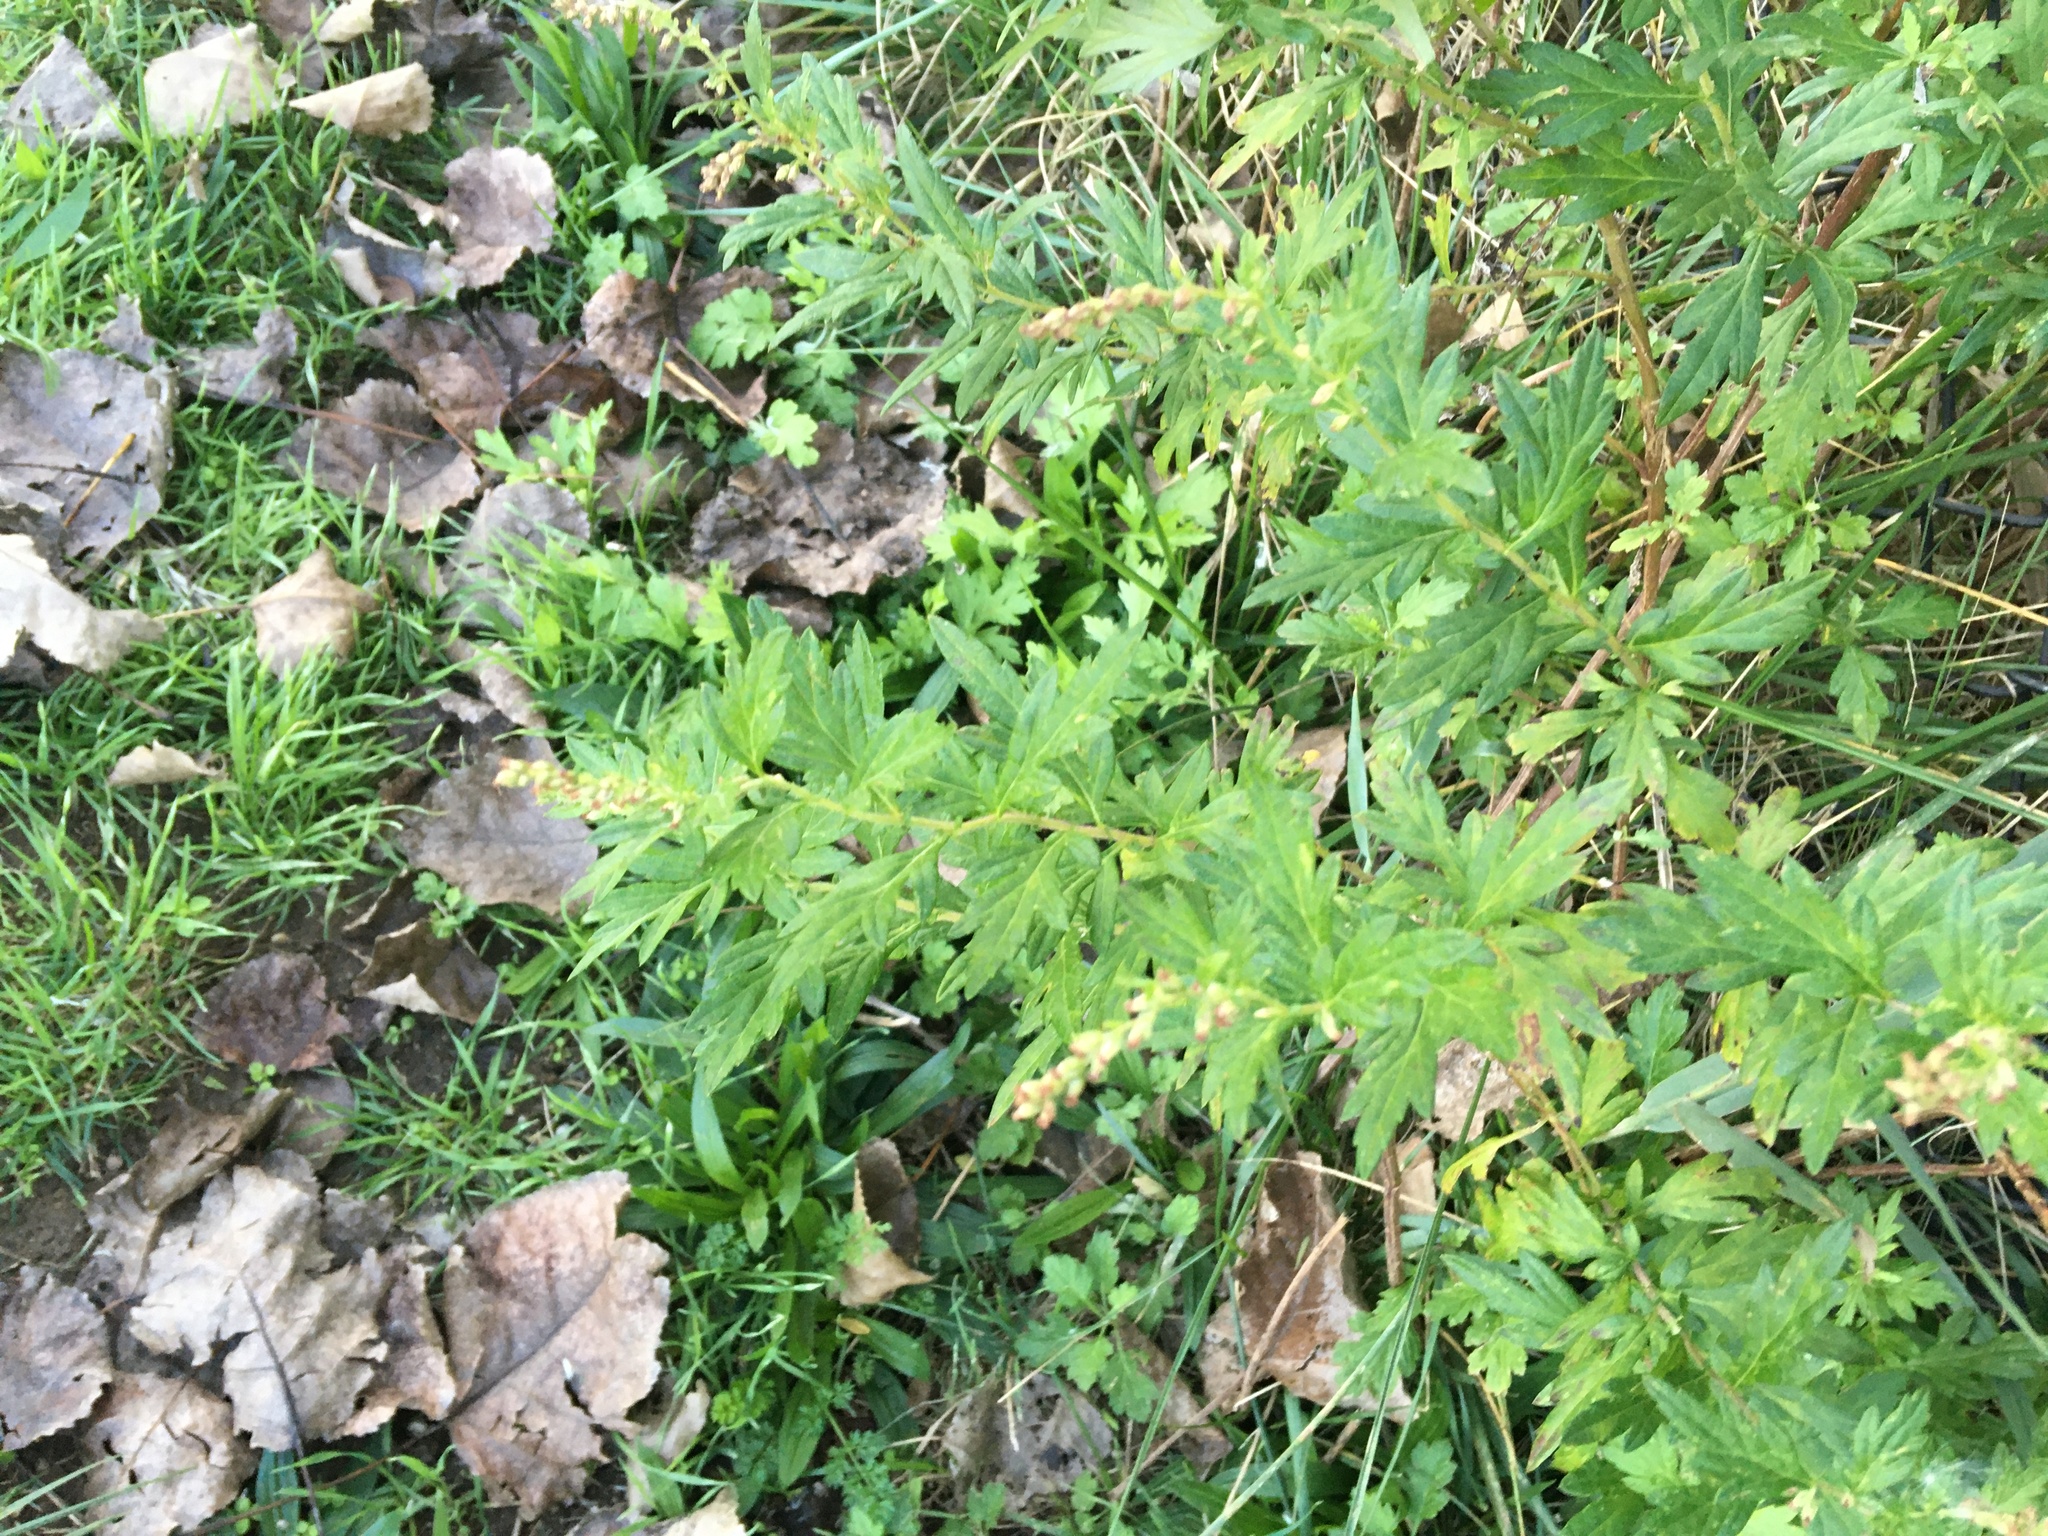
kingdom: Plantae
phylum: Tracheophyta
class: Magnoliopsida
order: Asterales
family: Asteraceae
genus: Artemisia
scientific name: Artemisia vulgaris
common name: Mugwort
